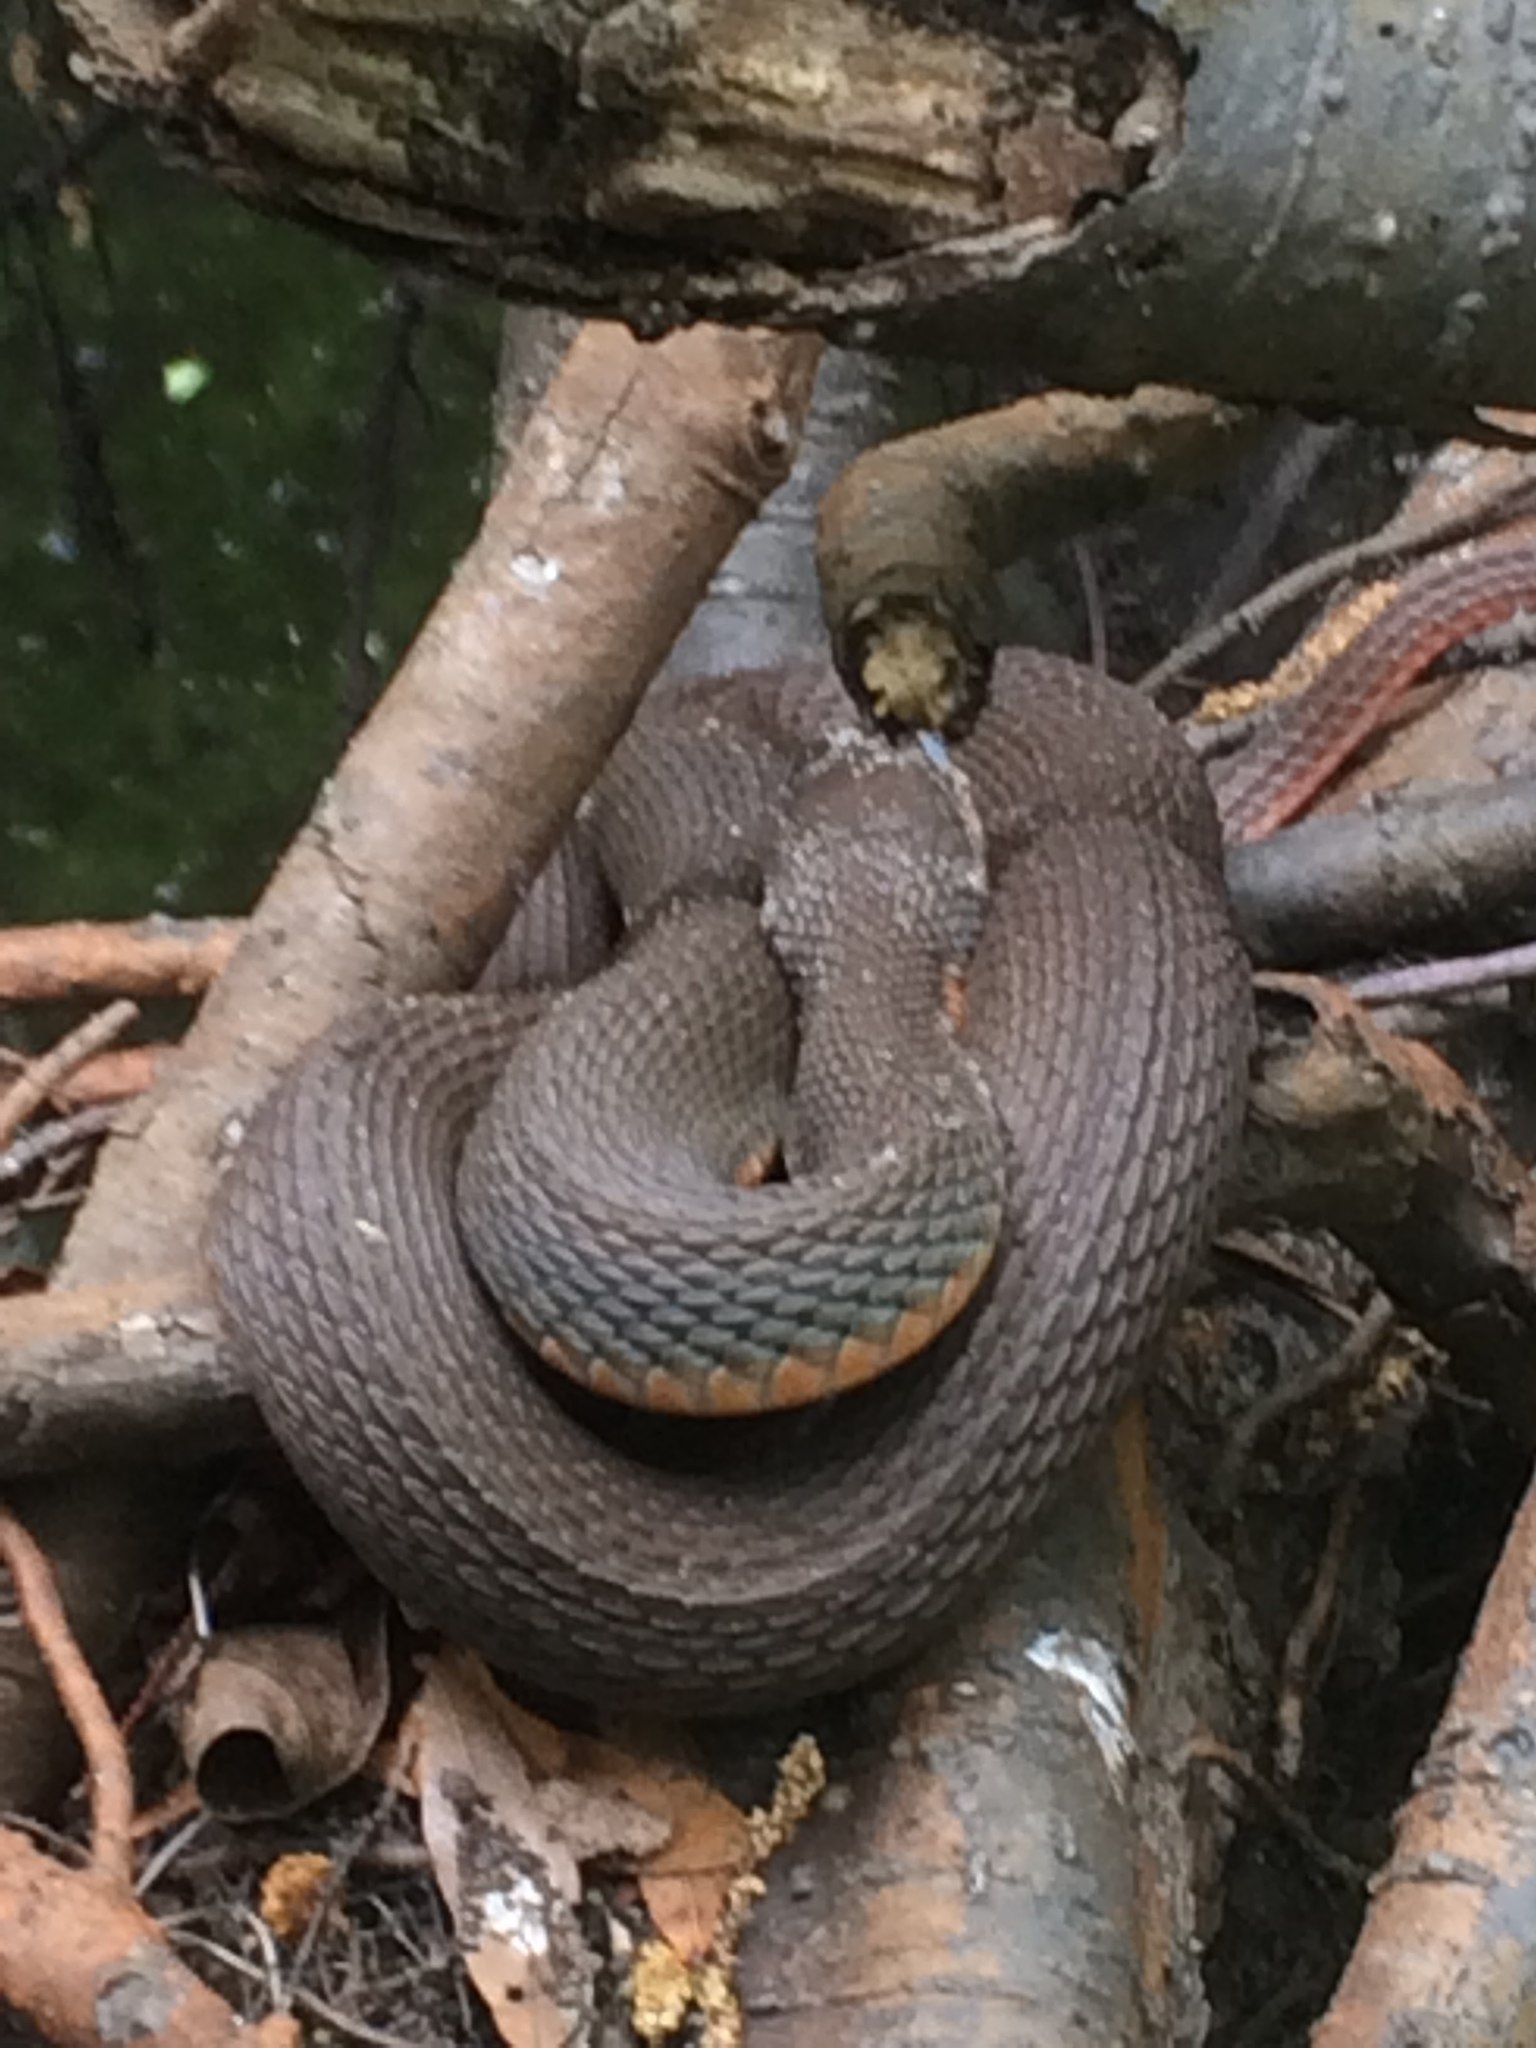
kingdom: Animalia
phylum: Chordata
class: Squamata
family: Colubridae
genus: Nerodia
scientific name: Nerodia erythrogaster
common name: Plainbelly water snake
